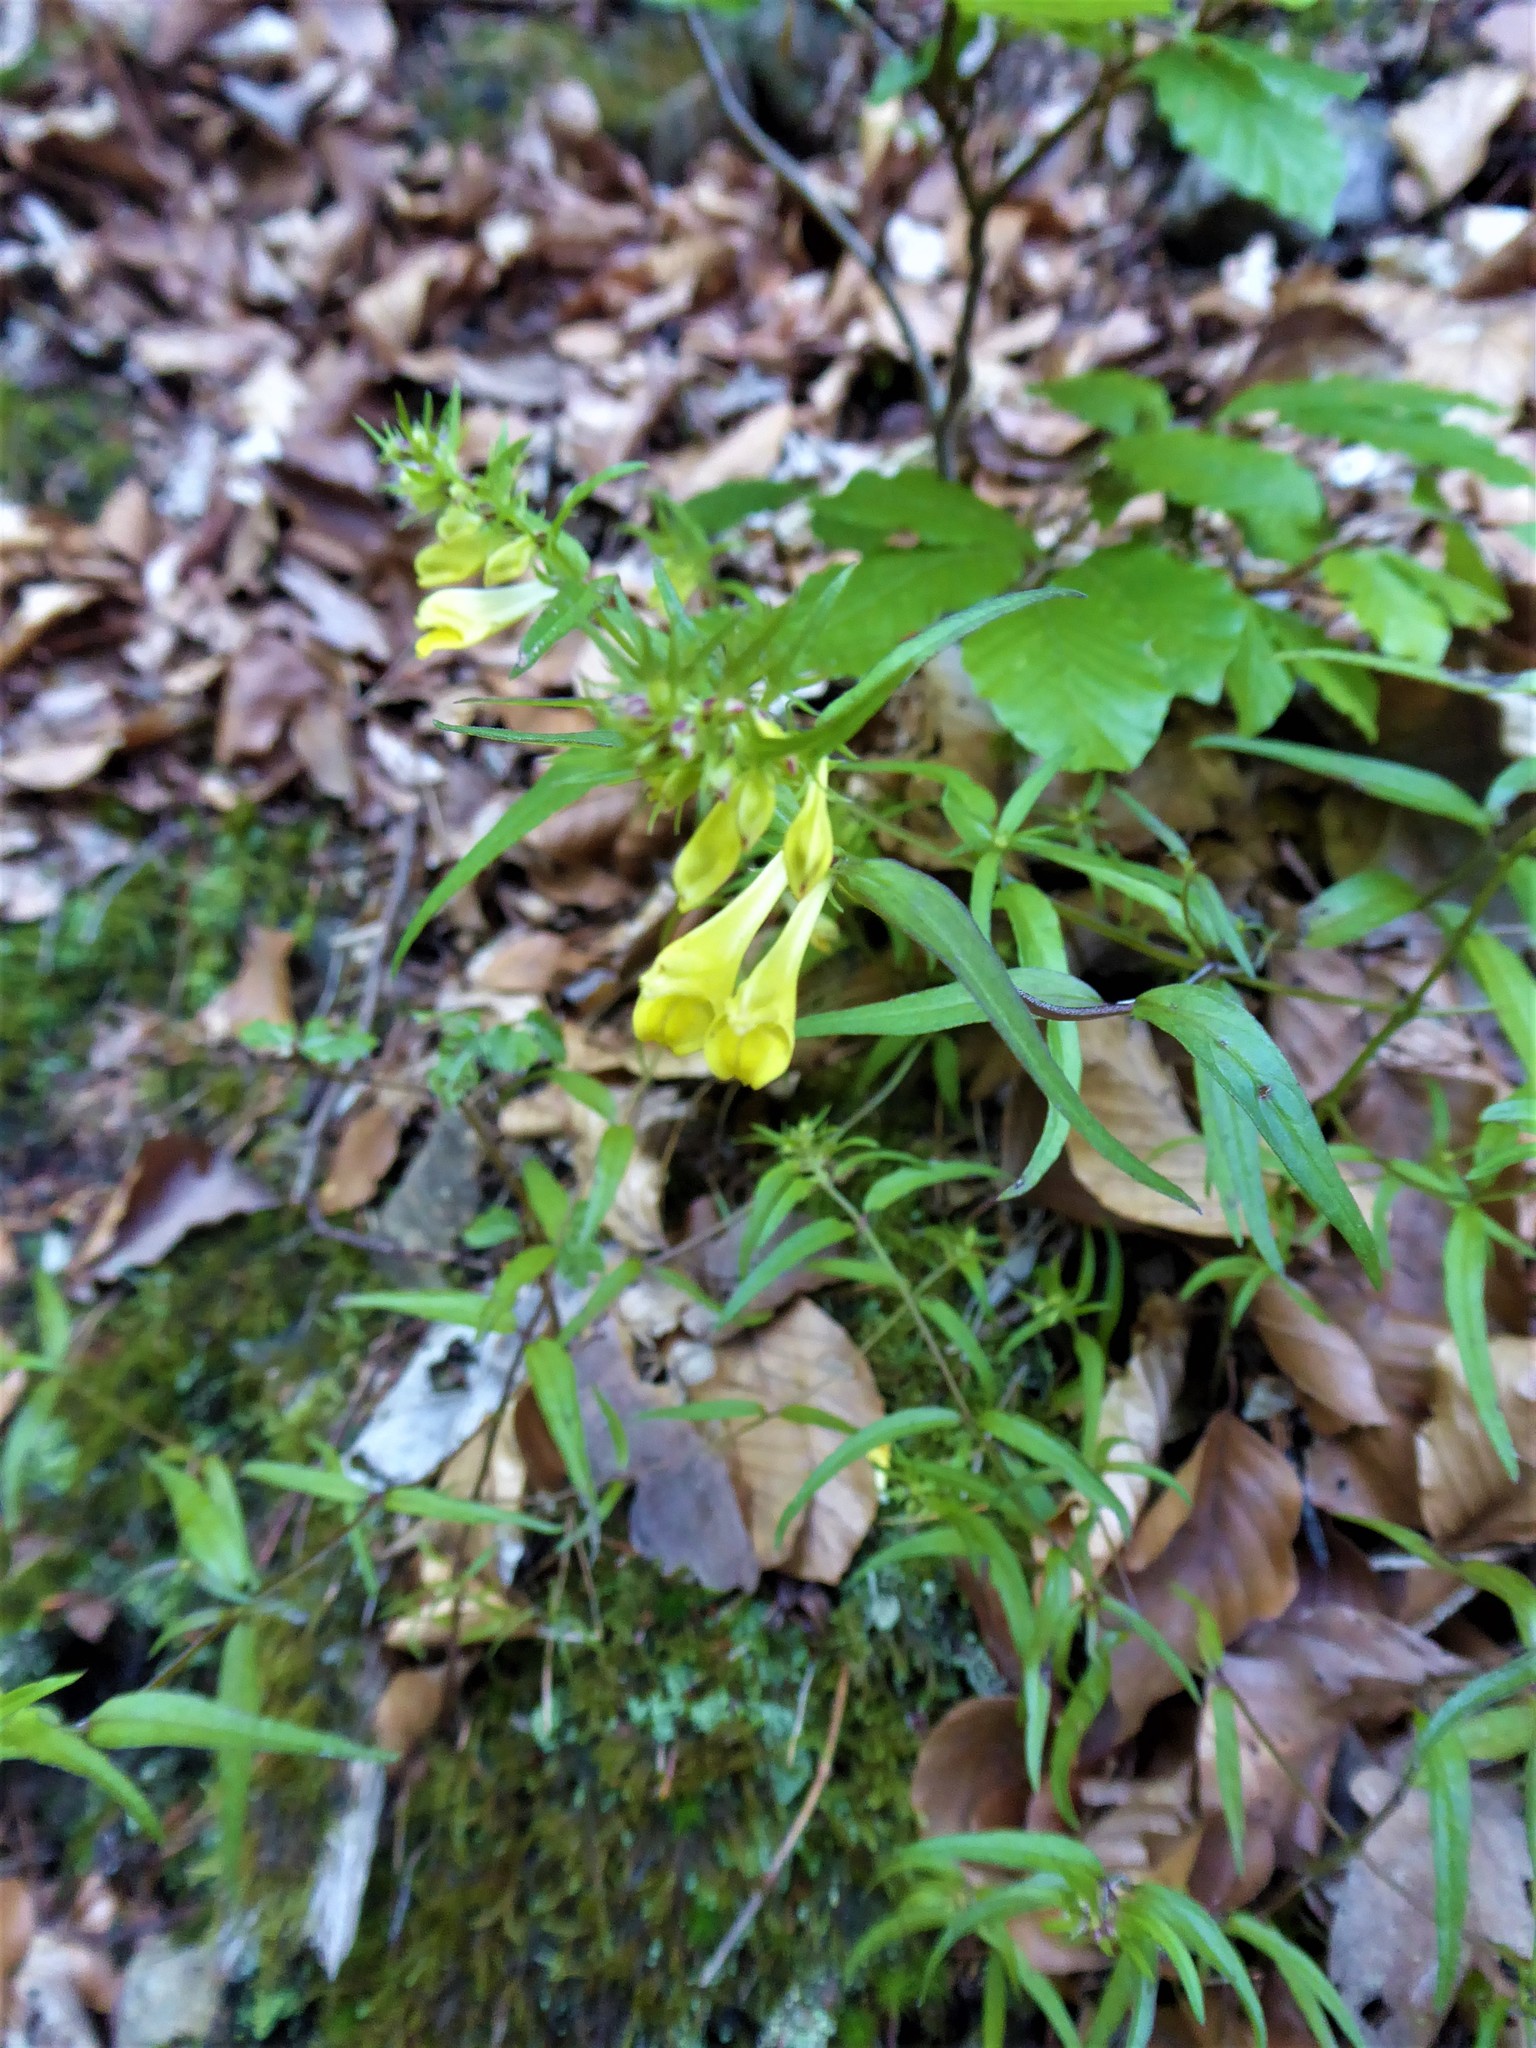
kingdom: Plantae
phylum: Tracheophyta
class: Magnoliopsida
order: Lamiales
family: Orobanchaceae
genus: Melampyrum
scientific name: Melampyrum pratense
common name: Common cow-wheat
